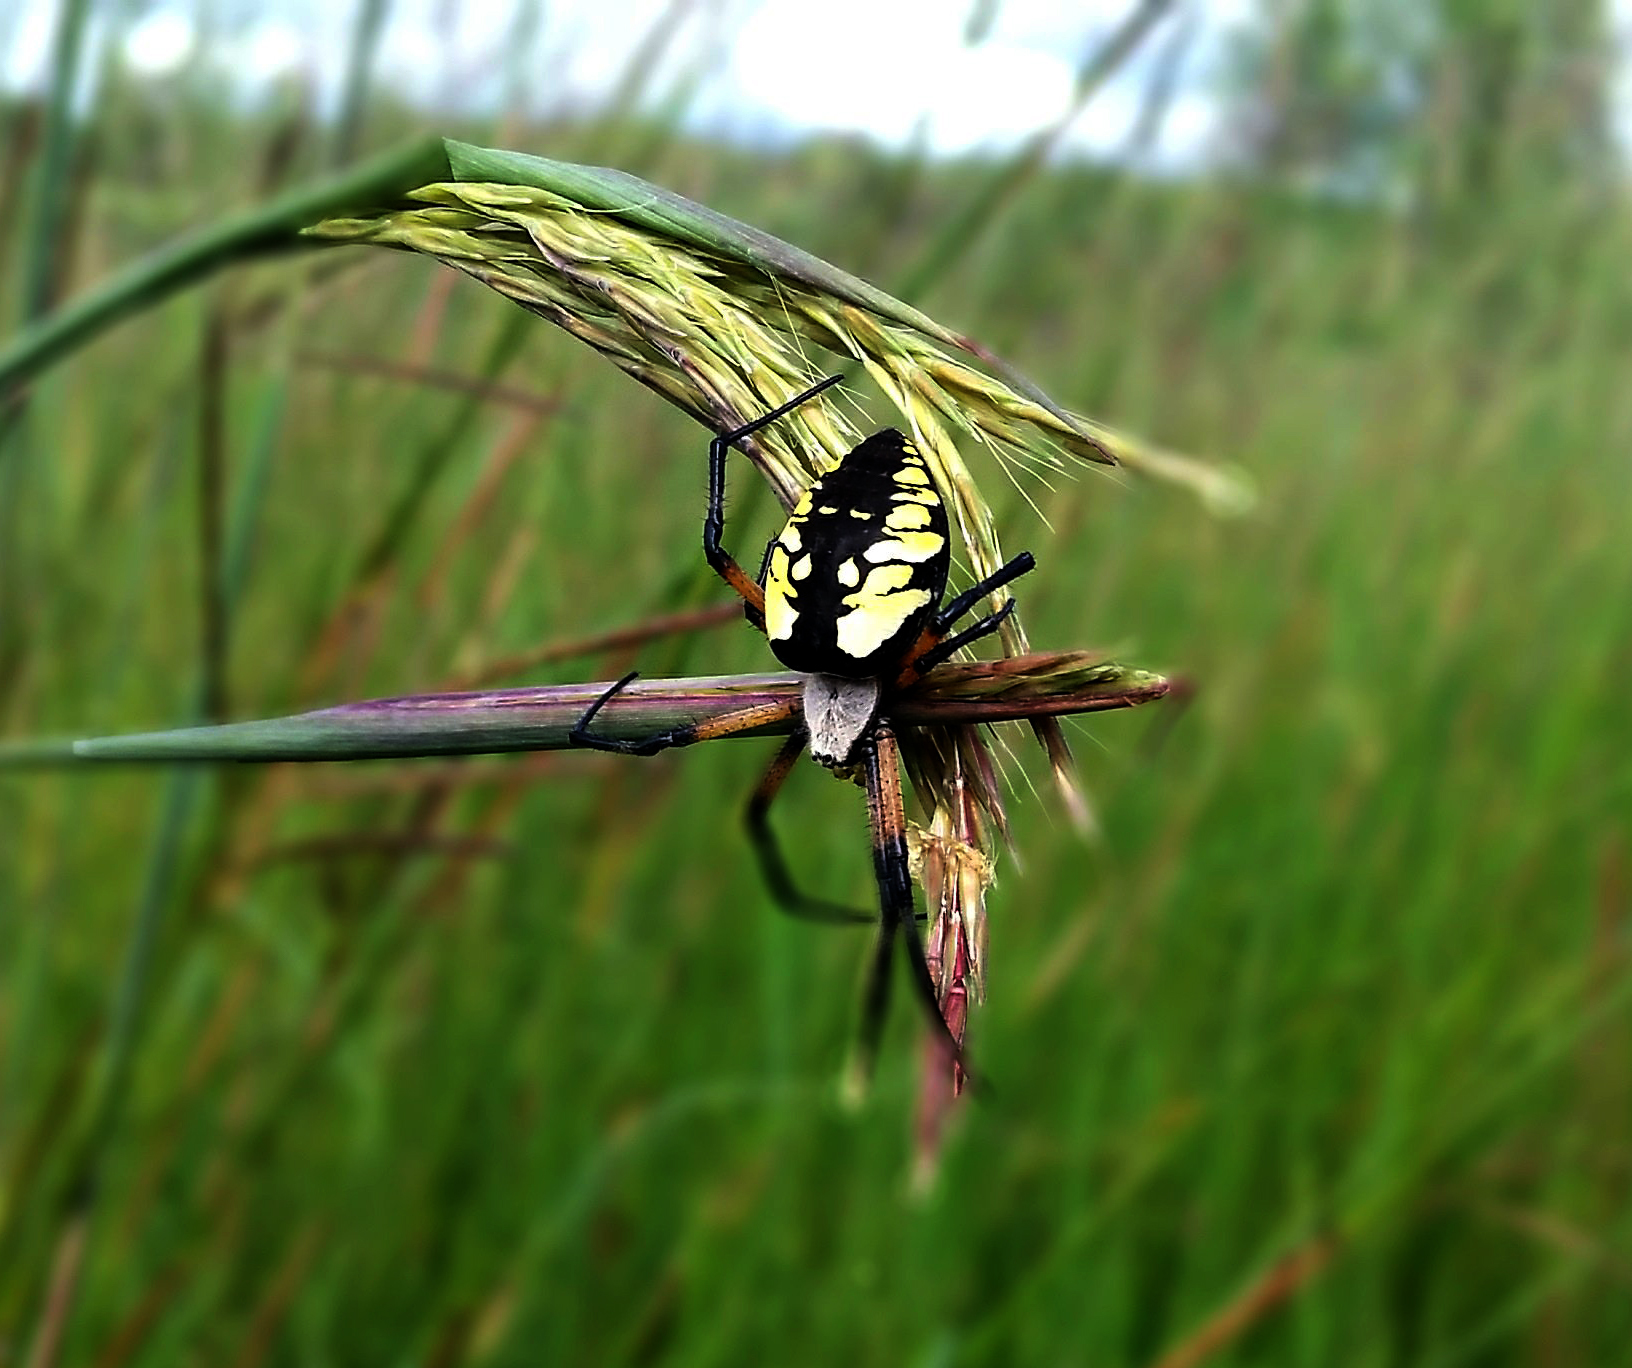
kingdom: Animalia
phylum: Arthropoda
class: Arachnida
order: Araneae
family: Araneidae
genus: Argiope
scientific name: Argiope aurantia
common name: Orb weavers
